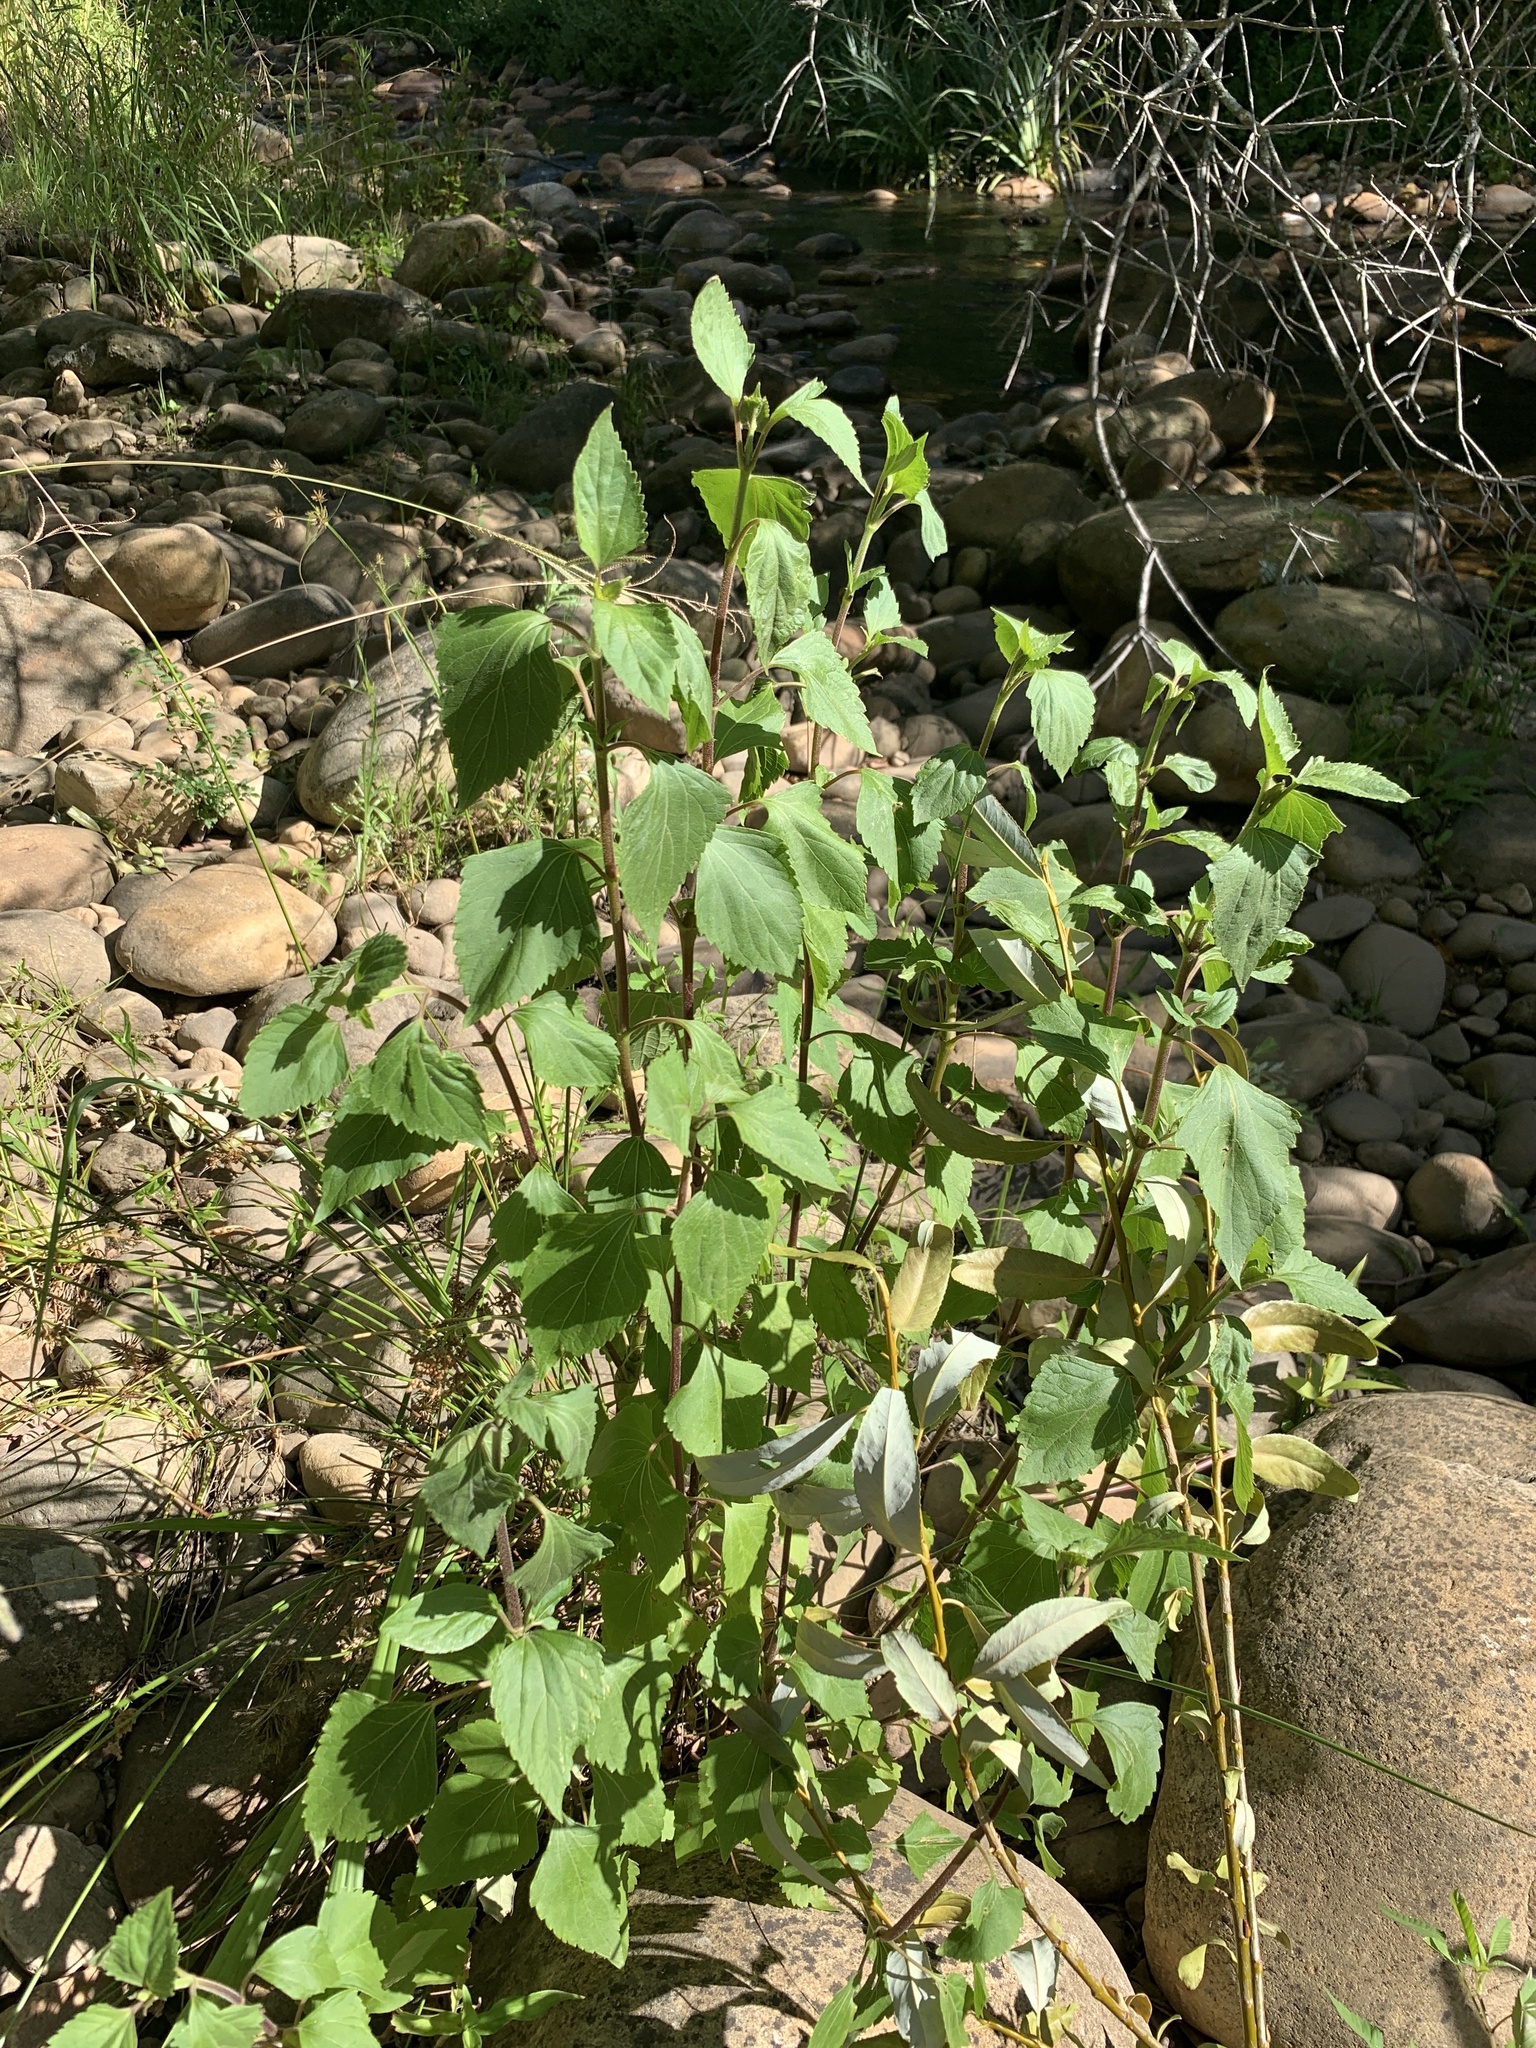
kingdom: Plantae
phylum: Tracheophyta
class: Magnoliopsida
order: Asterales
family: Asteraceae
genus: Ageratina
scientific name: Ageratina adenophora
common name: Sticky snakeroot
